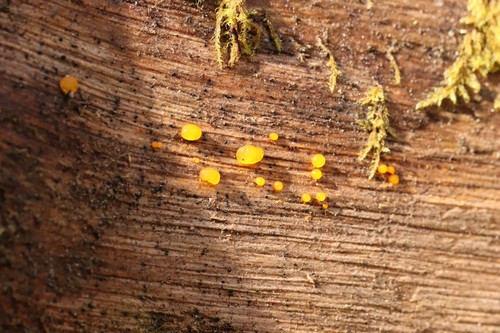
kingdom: Fungi
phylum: Basidiomycota
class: Dacrymycetes
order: Dacrymycetales
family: Dacrymycetaceae
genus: Dacrymyces
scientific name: Dacrymyces chrysospermus
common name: Orange jelly spot
